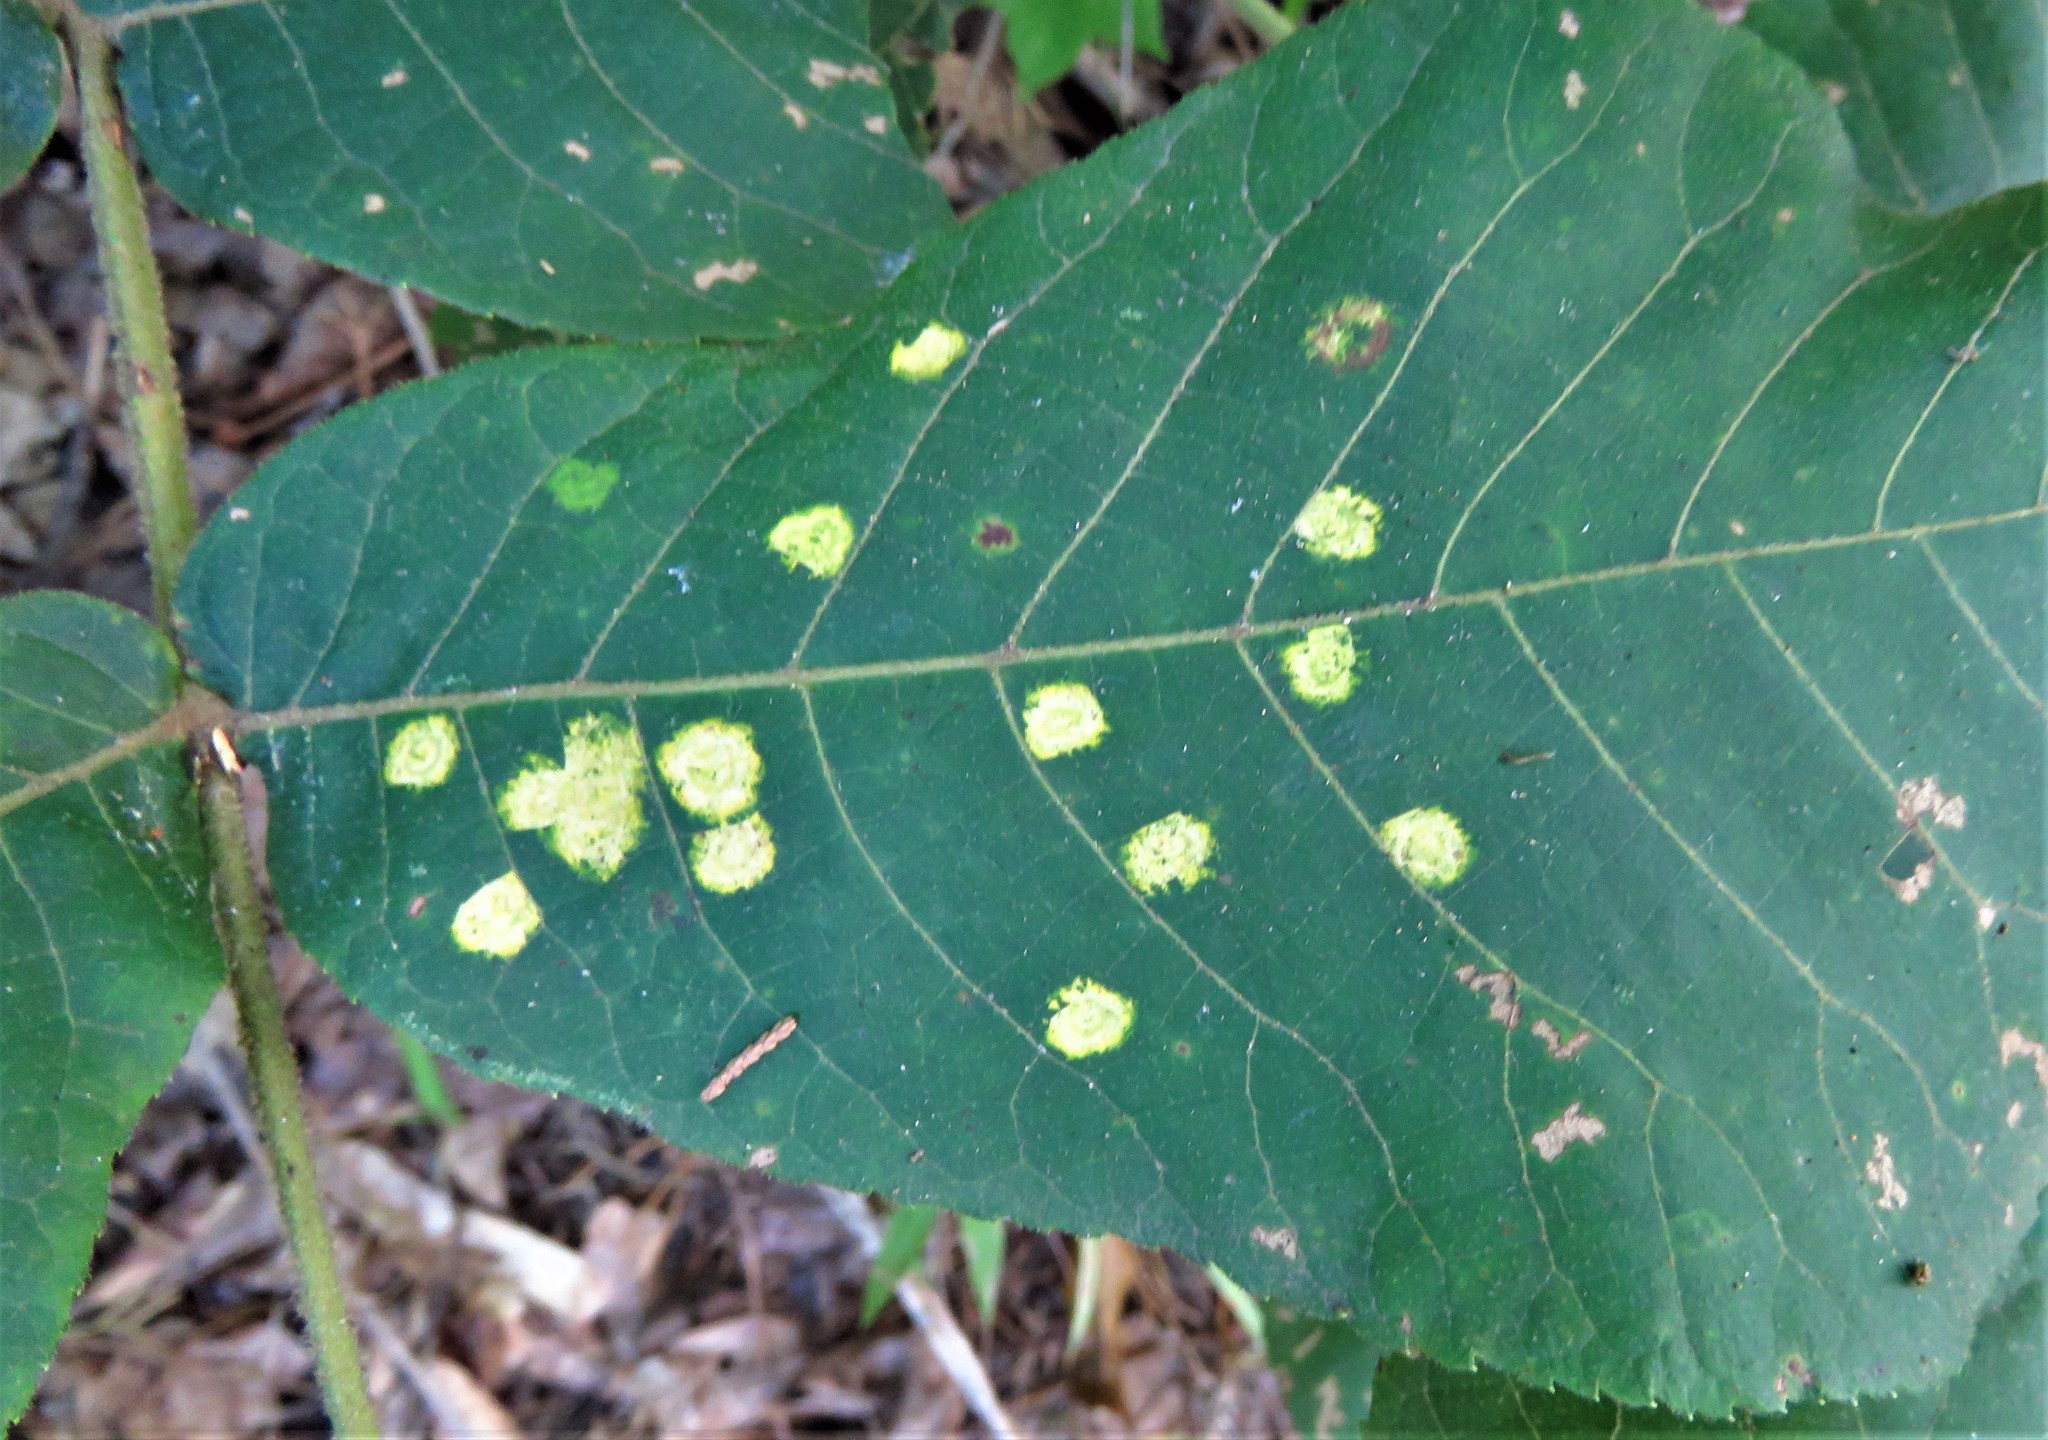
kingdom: Animalia
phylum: Arthropoda
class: Insecta
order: Diptera
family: Cecidomyiidae
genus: Gliaspilota
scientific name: Gliaspilota glutinosa
